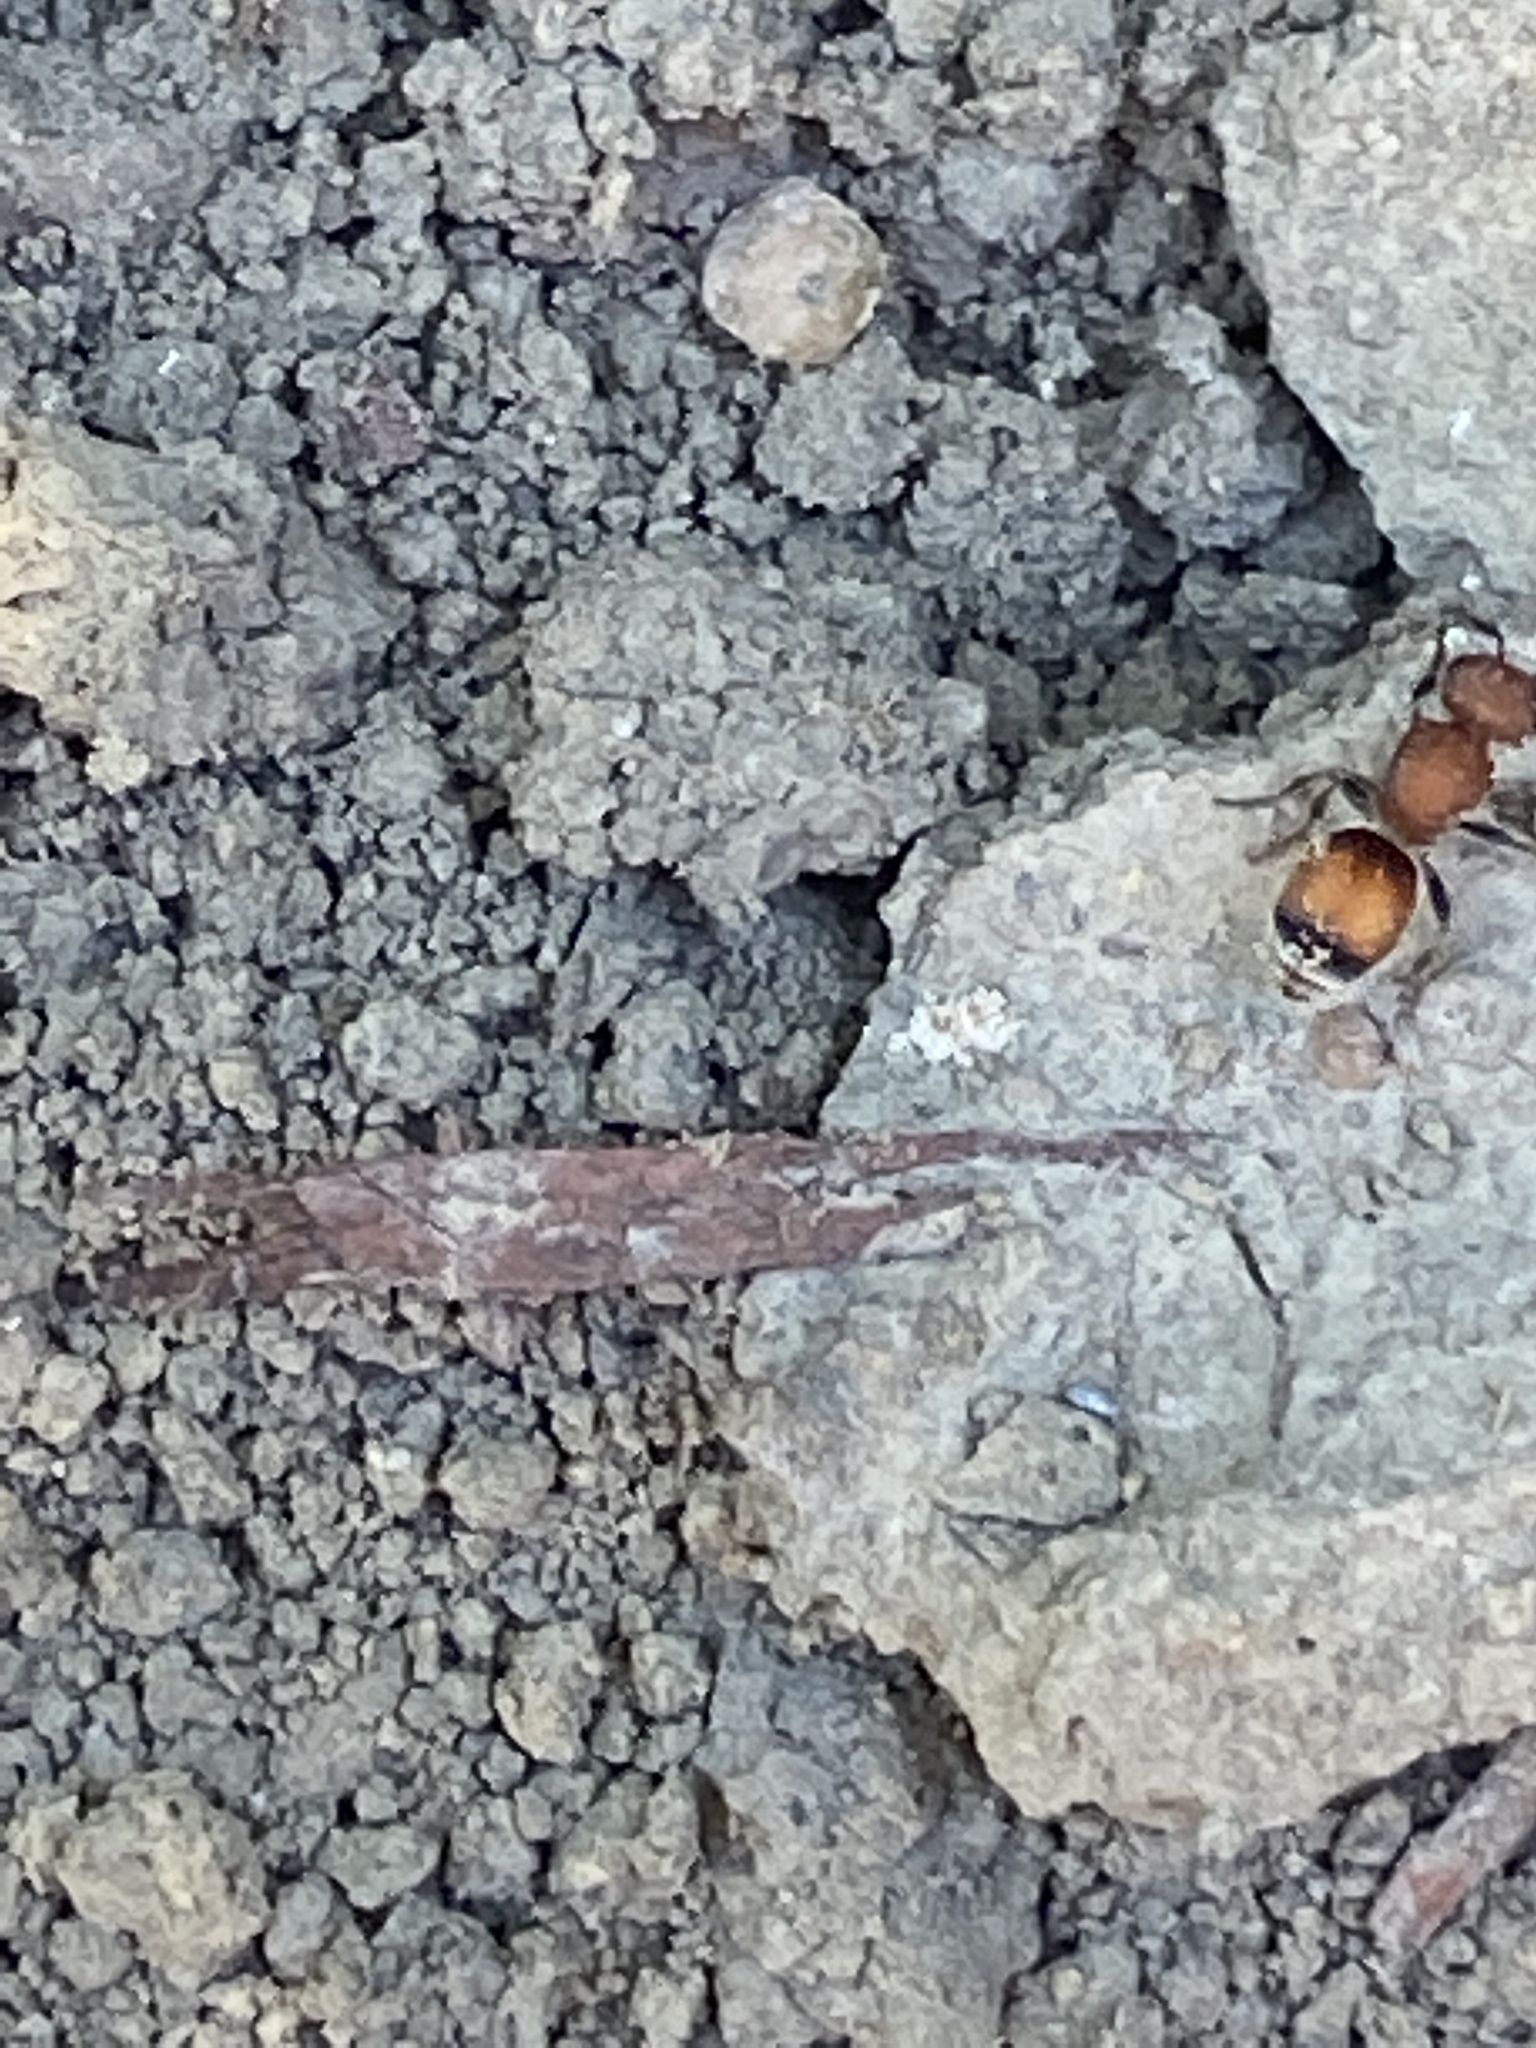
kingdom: Animalia
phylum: Arthropoda
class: Insecta
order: Hymenoptera
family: Mutillidae
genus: Pseudomethoca
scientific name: Pseudomethoca
